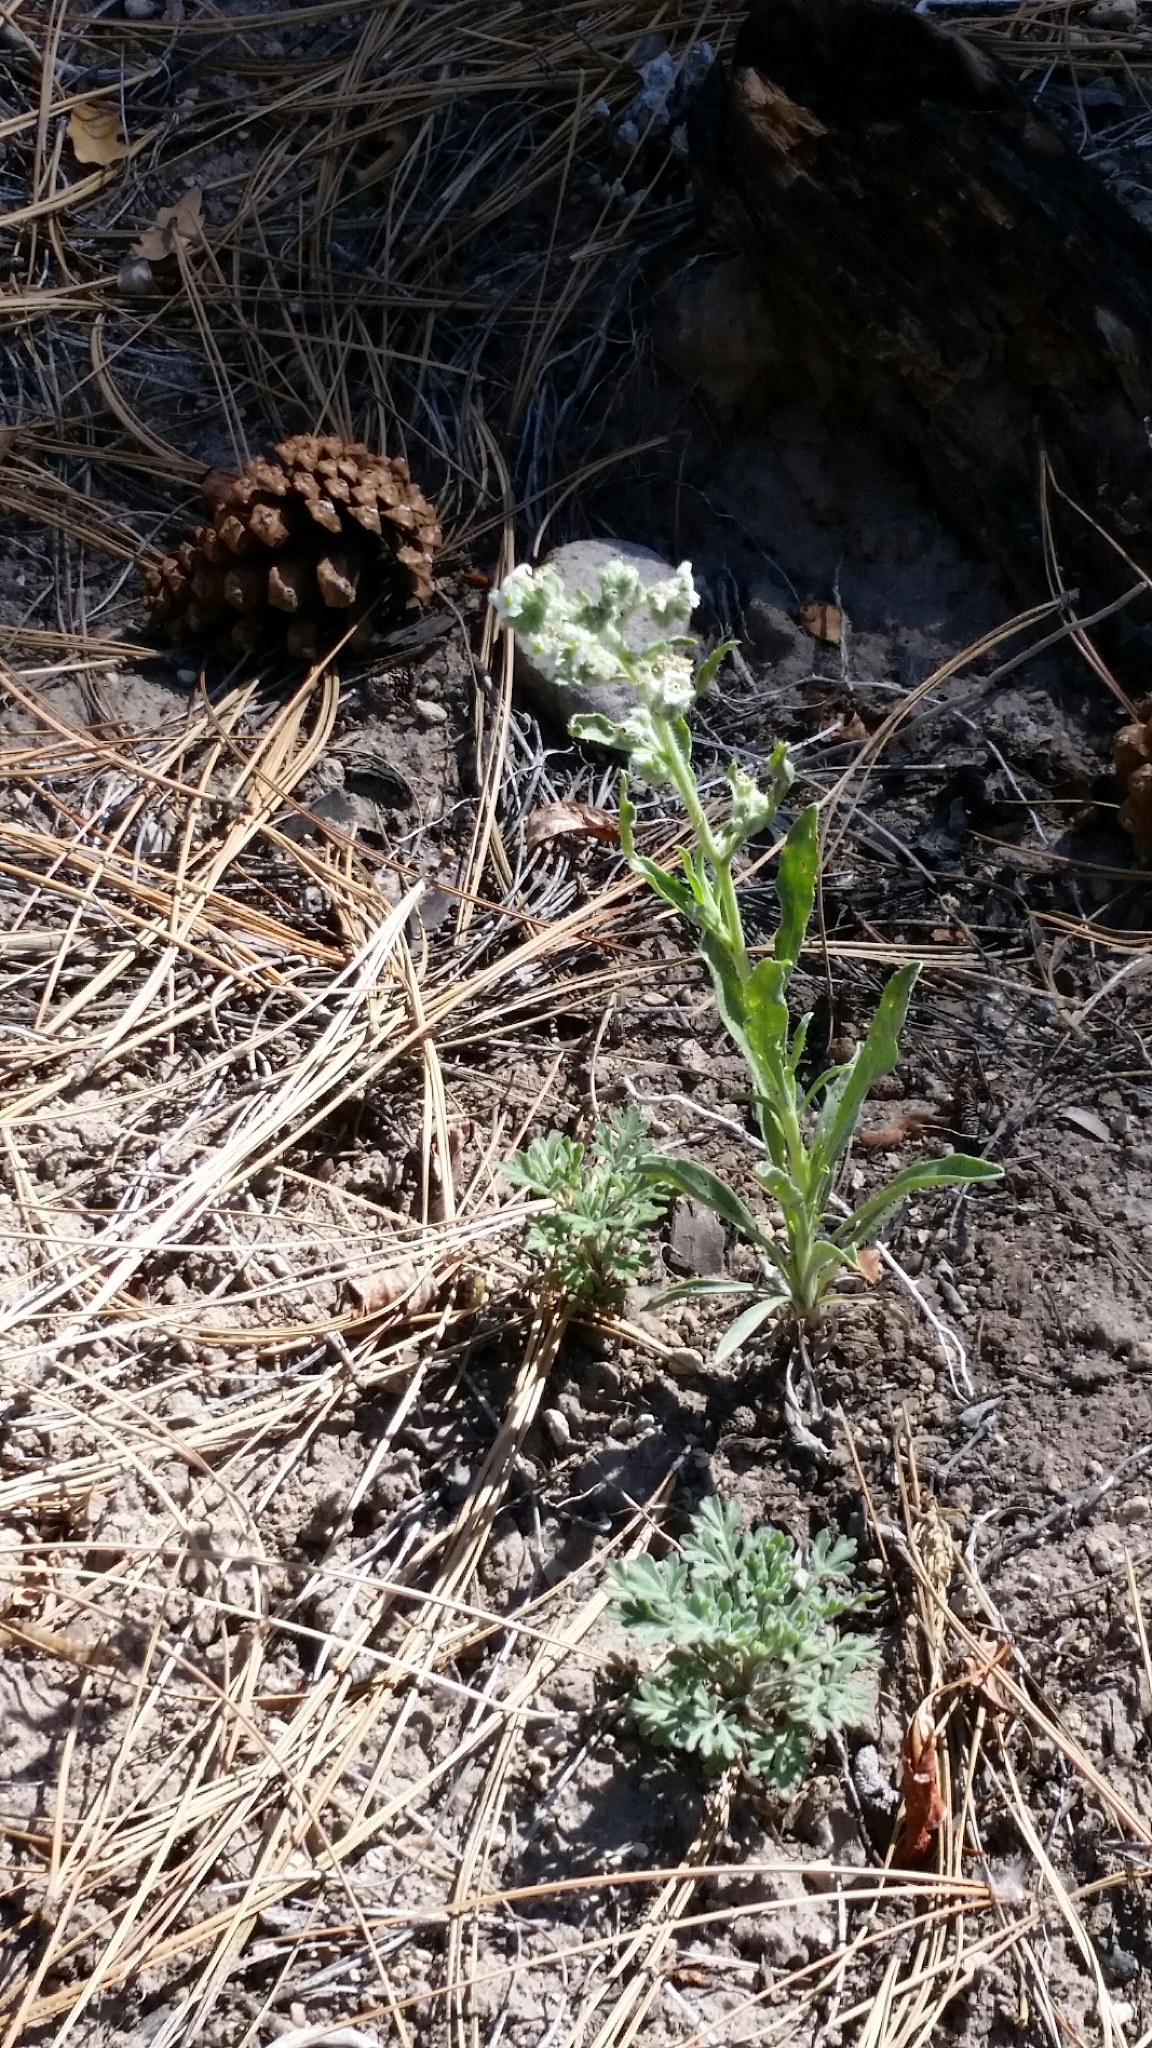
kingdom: Plantae
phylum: Tracheophyta
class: Magnoliopsida
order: Boraginales
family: Boraginaceae
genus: Oreocarya
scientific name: Oreocarya suffruticosa
